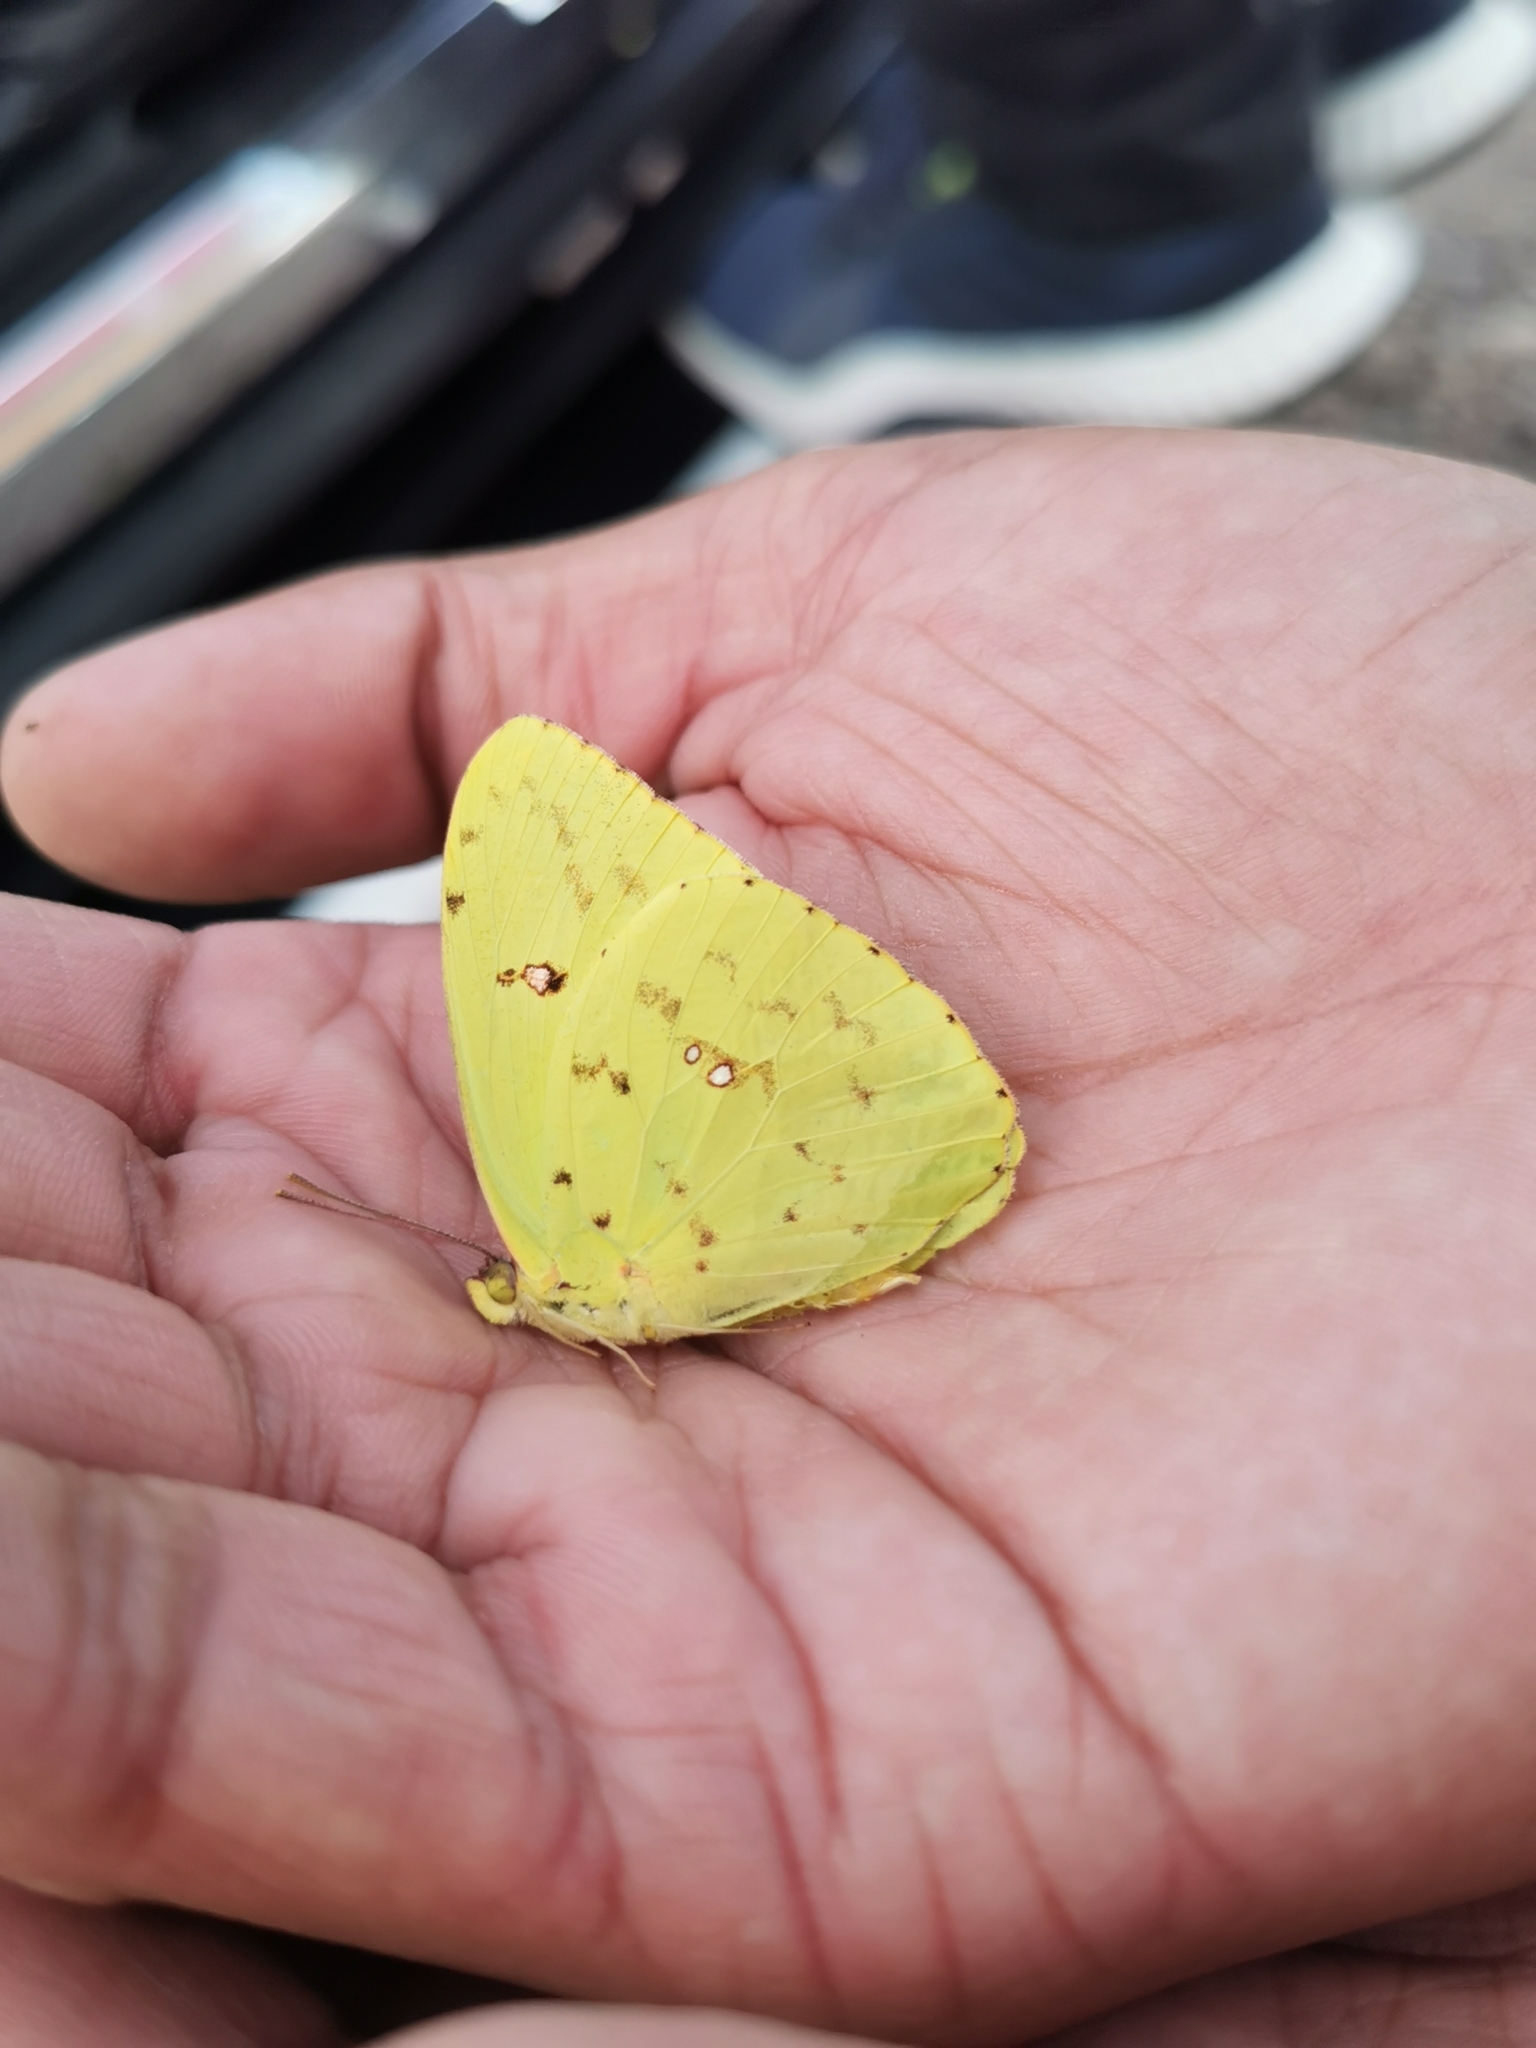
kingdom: Animalia
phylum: Arthropoda
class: Insecta
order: Lepidoptera
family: Pieridae
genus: Phoebis
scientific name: Phoebis sennae
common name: Cloudless sulphur
